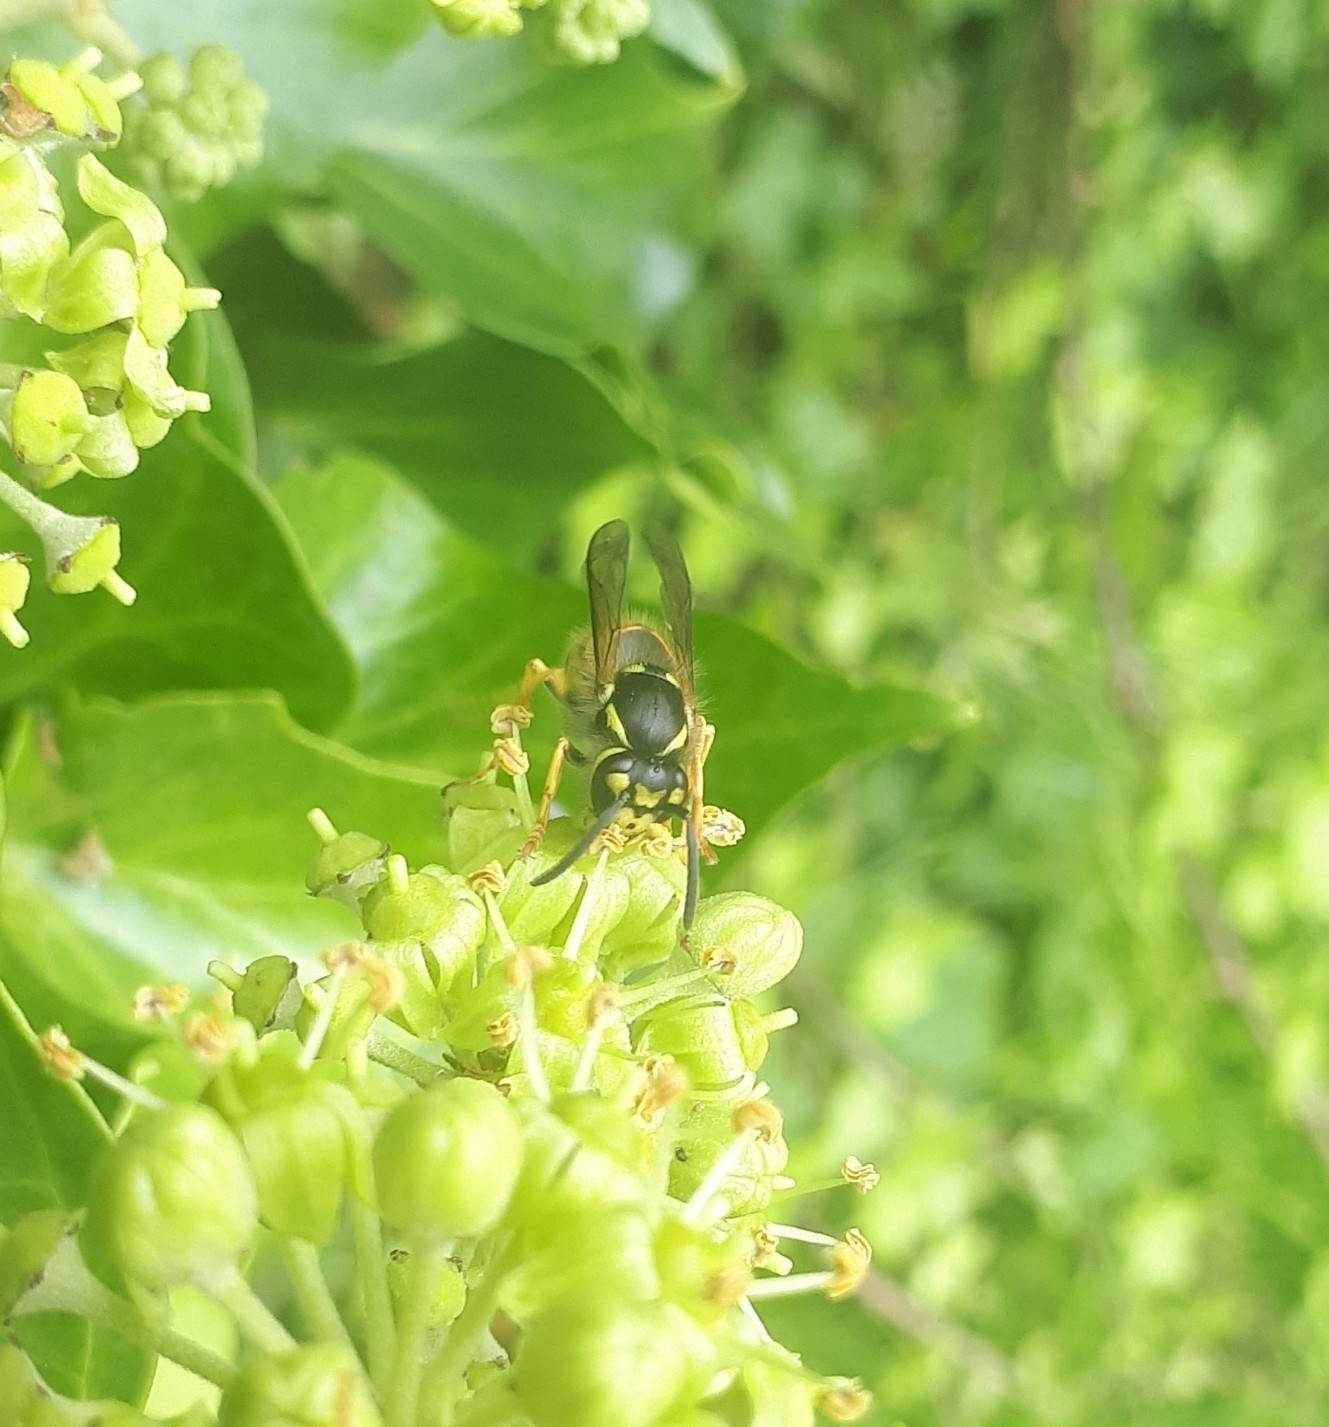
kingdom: Animalia
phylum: Arthropoda
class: Insecta
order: Hymenoptera
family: Vespidae
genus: Vespula
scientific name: Vespula germanica
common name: German wasp
